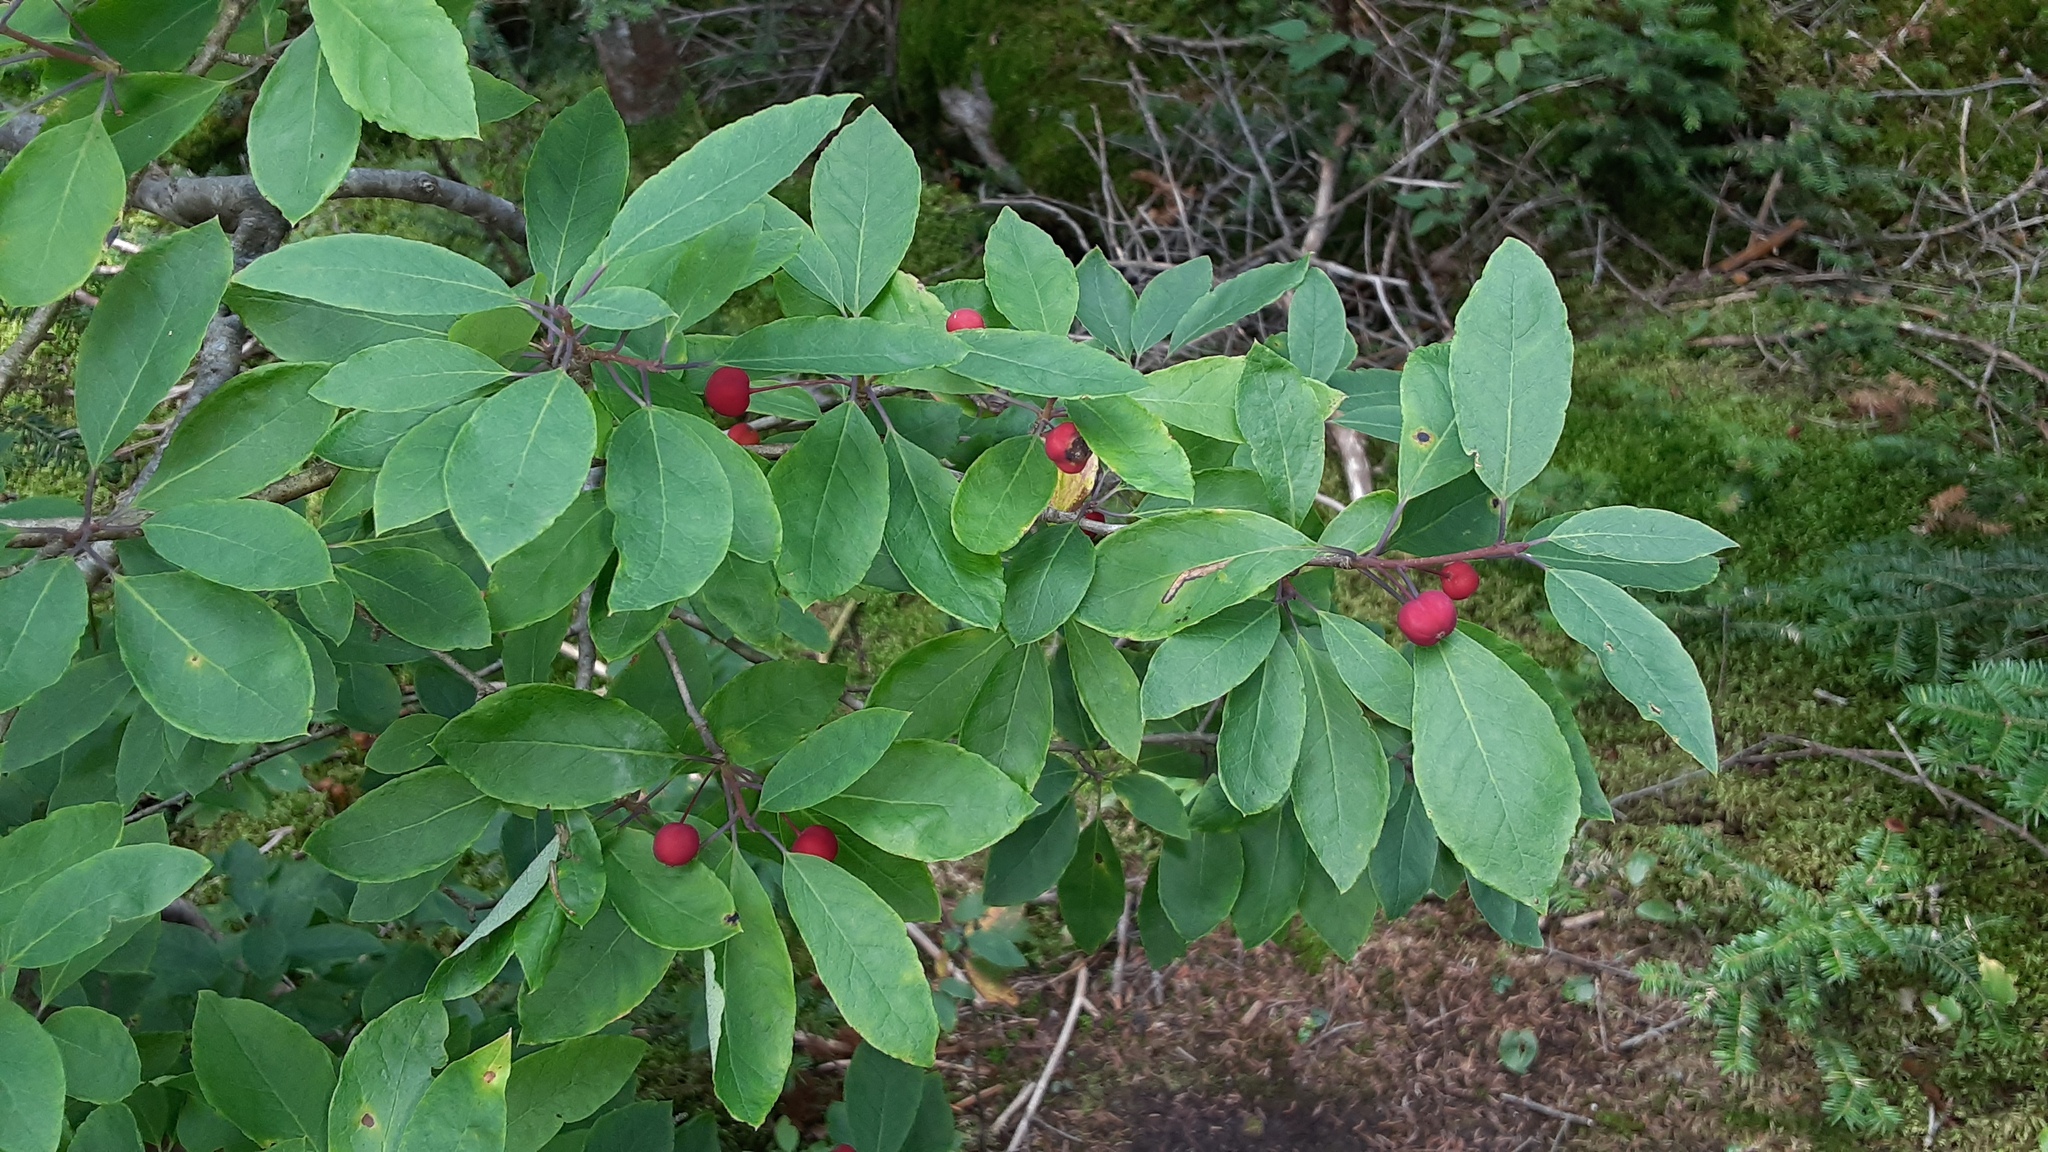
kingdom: Plantae
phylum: Tracheophyta
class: Magnoliopsida
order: Aquifoliales
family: Aquifoliaceae
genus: Ilex
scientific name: Ilex mucronata
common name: Catberry
